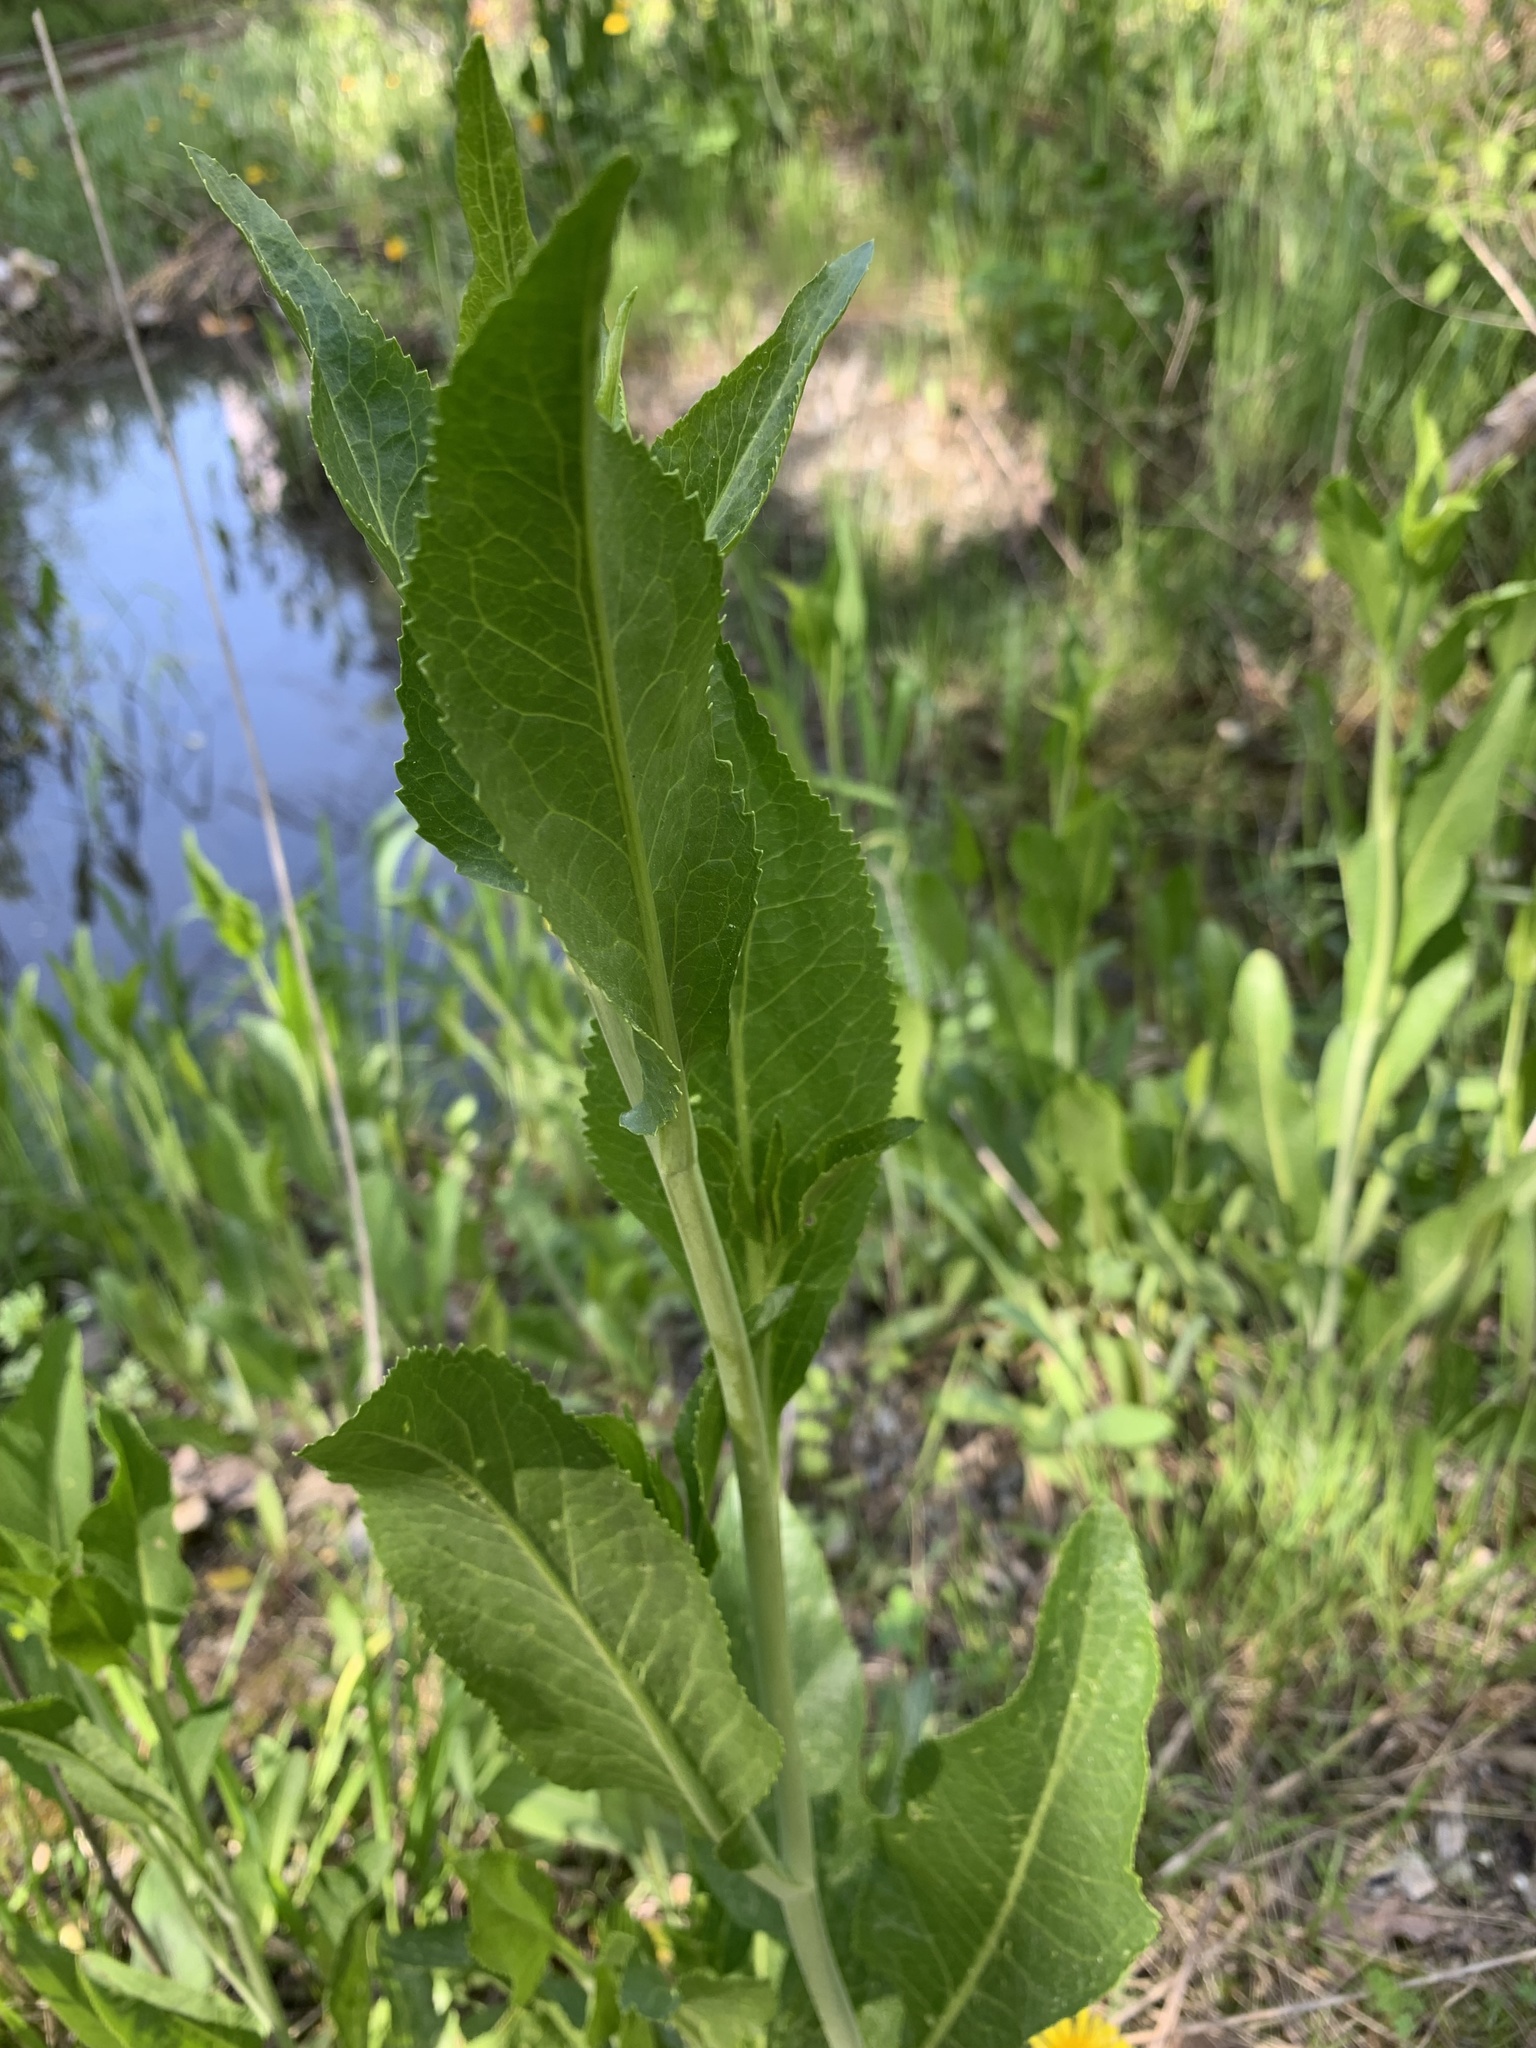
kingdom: Plantae
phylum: Tracheophyta
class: Magnoliopsida
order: Brassicales
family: Brassicaceae
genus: Lepidium
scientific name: Lepidium latifolium
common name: Dittander
